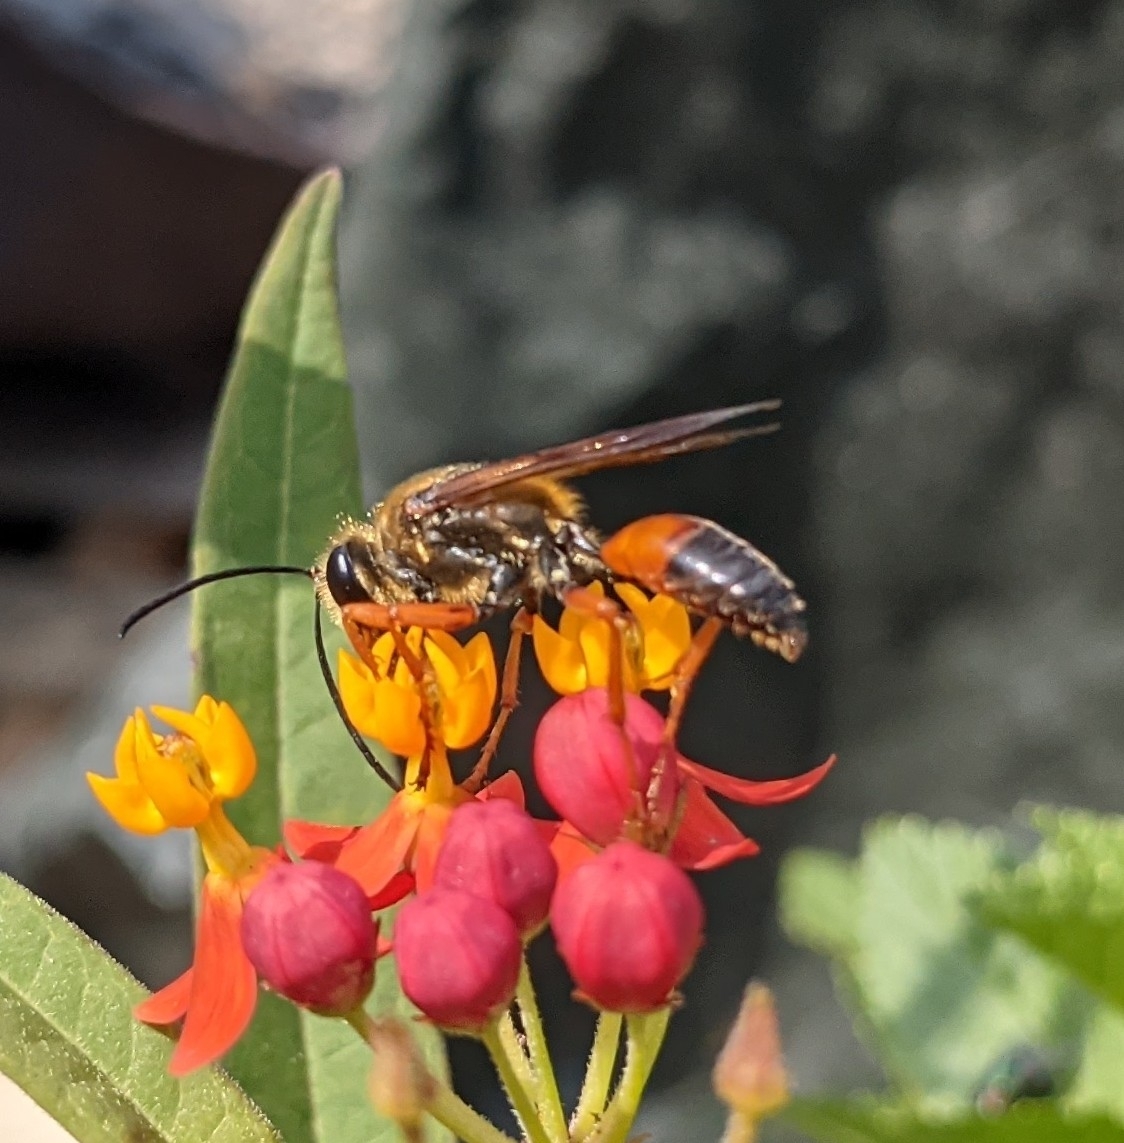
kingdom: Animalia
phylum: Arthropoda
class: Insecta
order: Hymenoptera
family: Sphecidae
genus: Sphex
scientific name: Sphex ichneumoneus
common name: Great golden digger wasp
